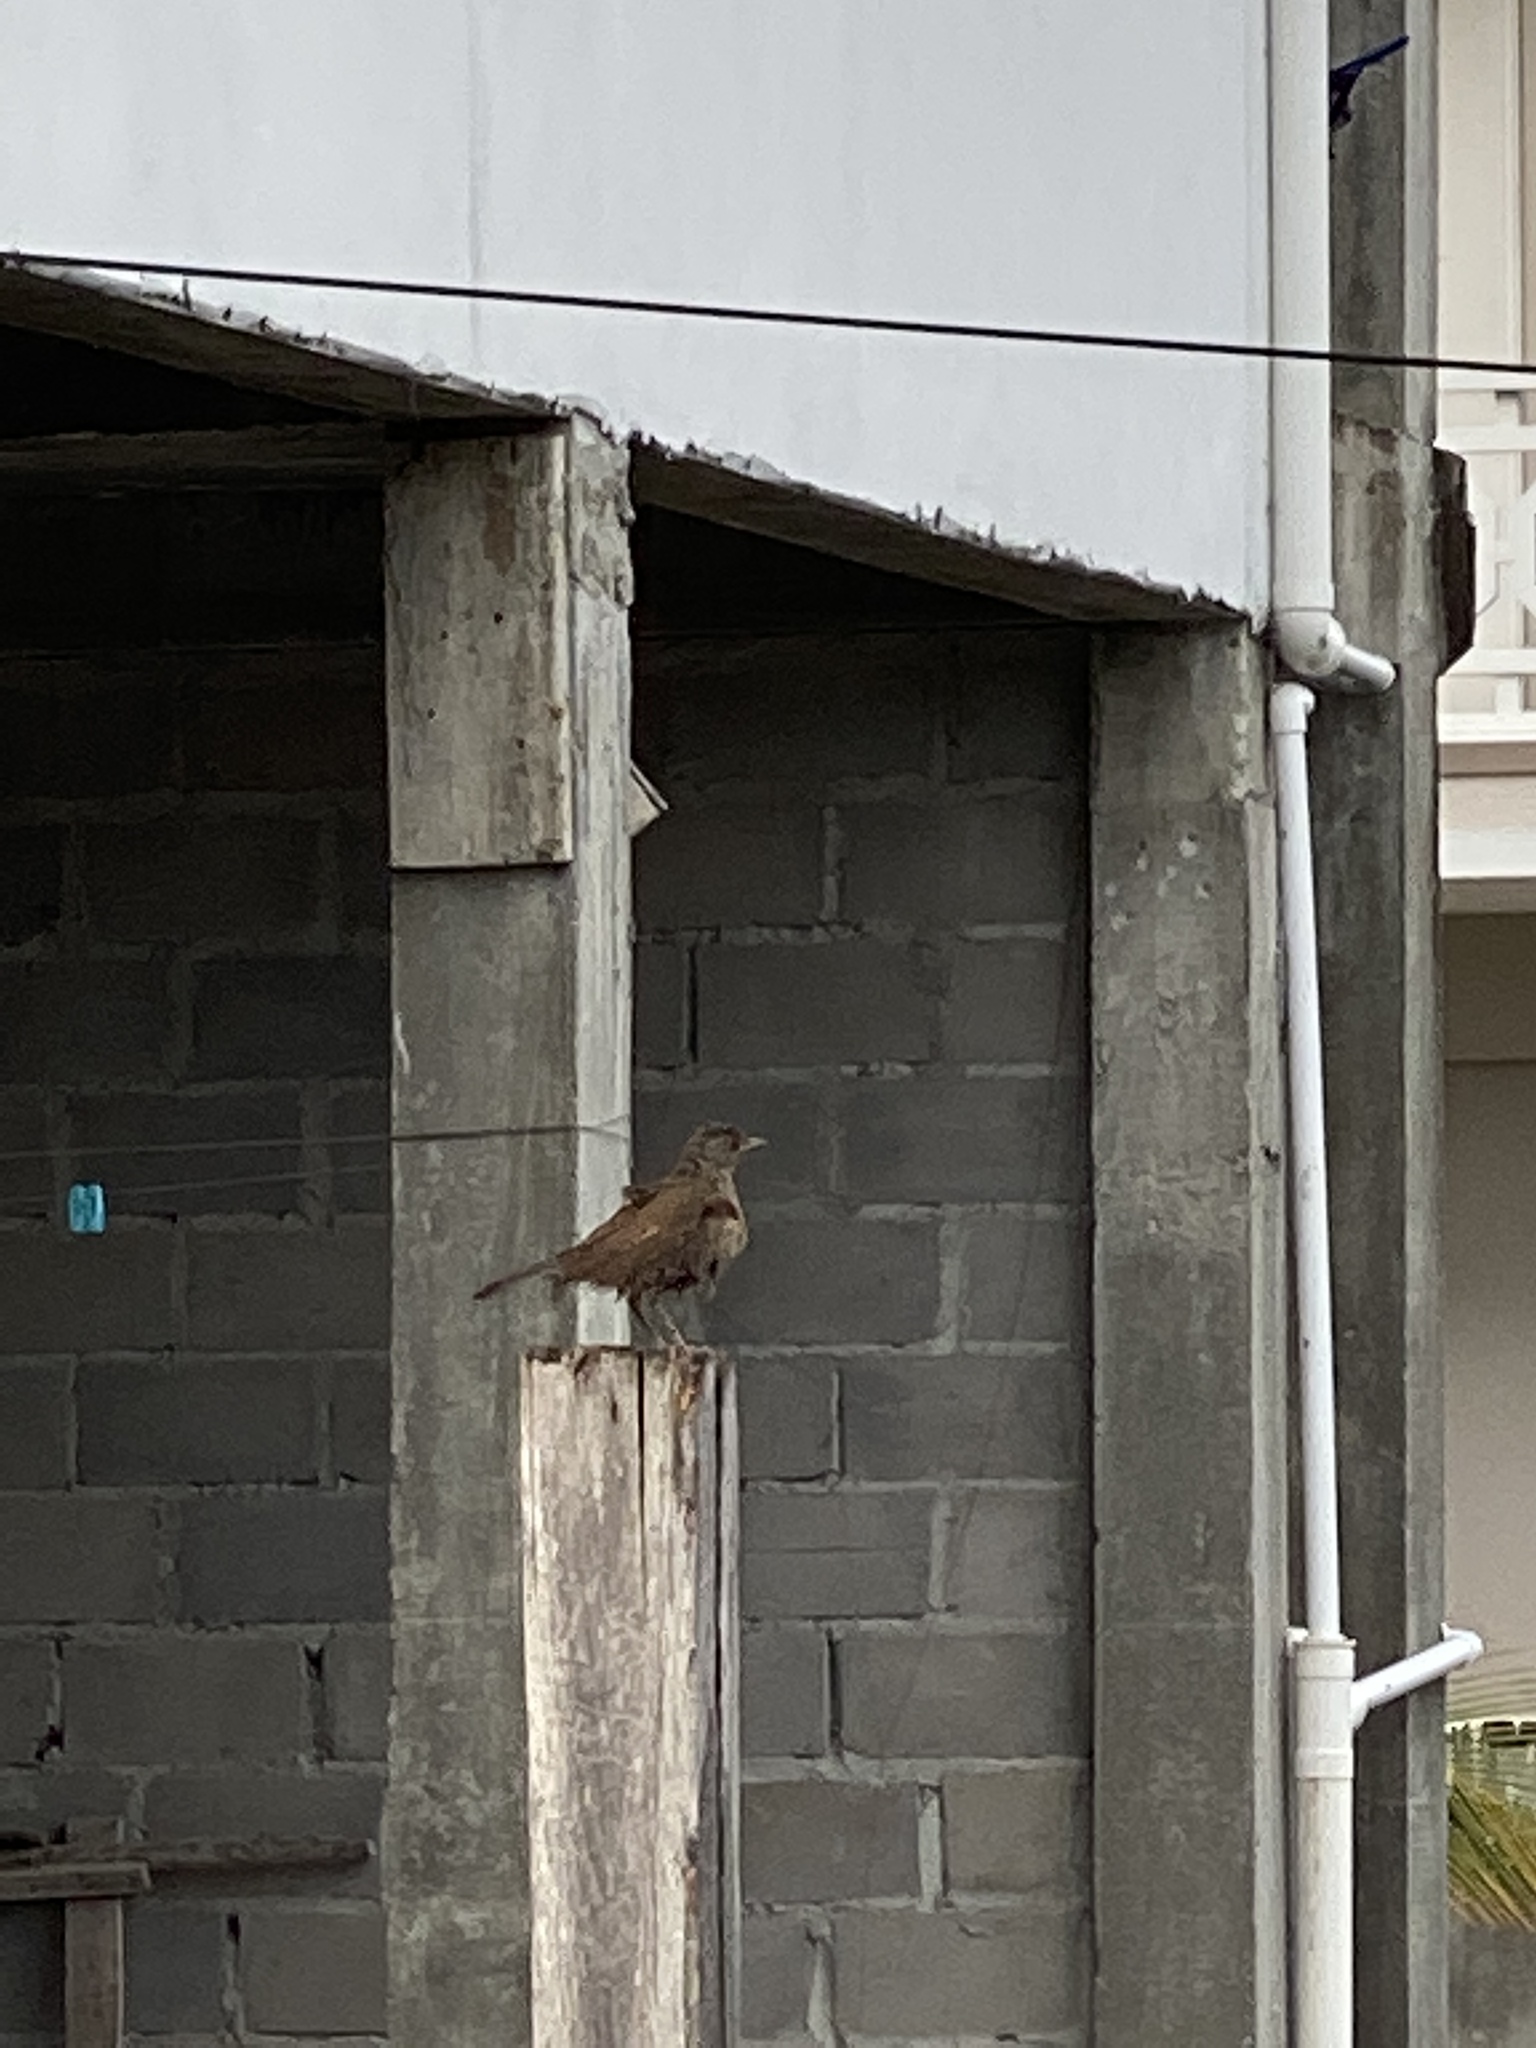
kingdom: Animalia
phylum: Chordata
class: Aves
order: Passeriformes
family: Turdidae
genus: Turdus
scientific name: Turdus leucomelas
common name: Pale-breasted thrush
